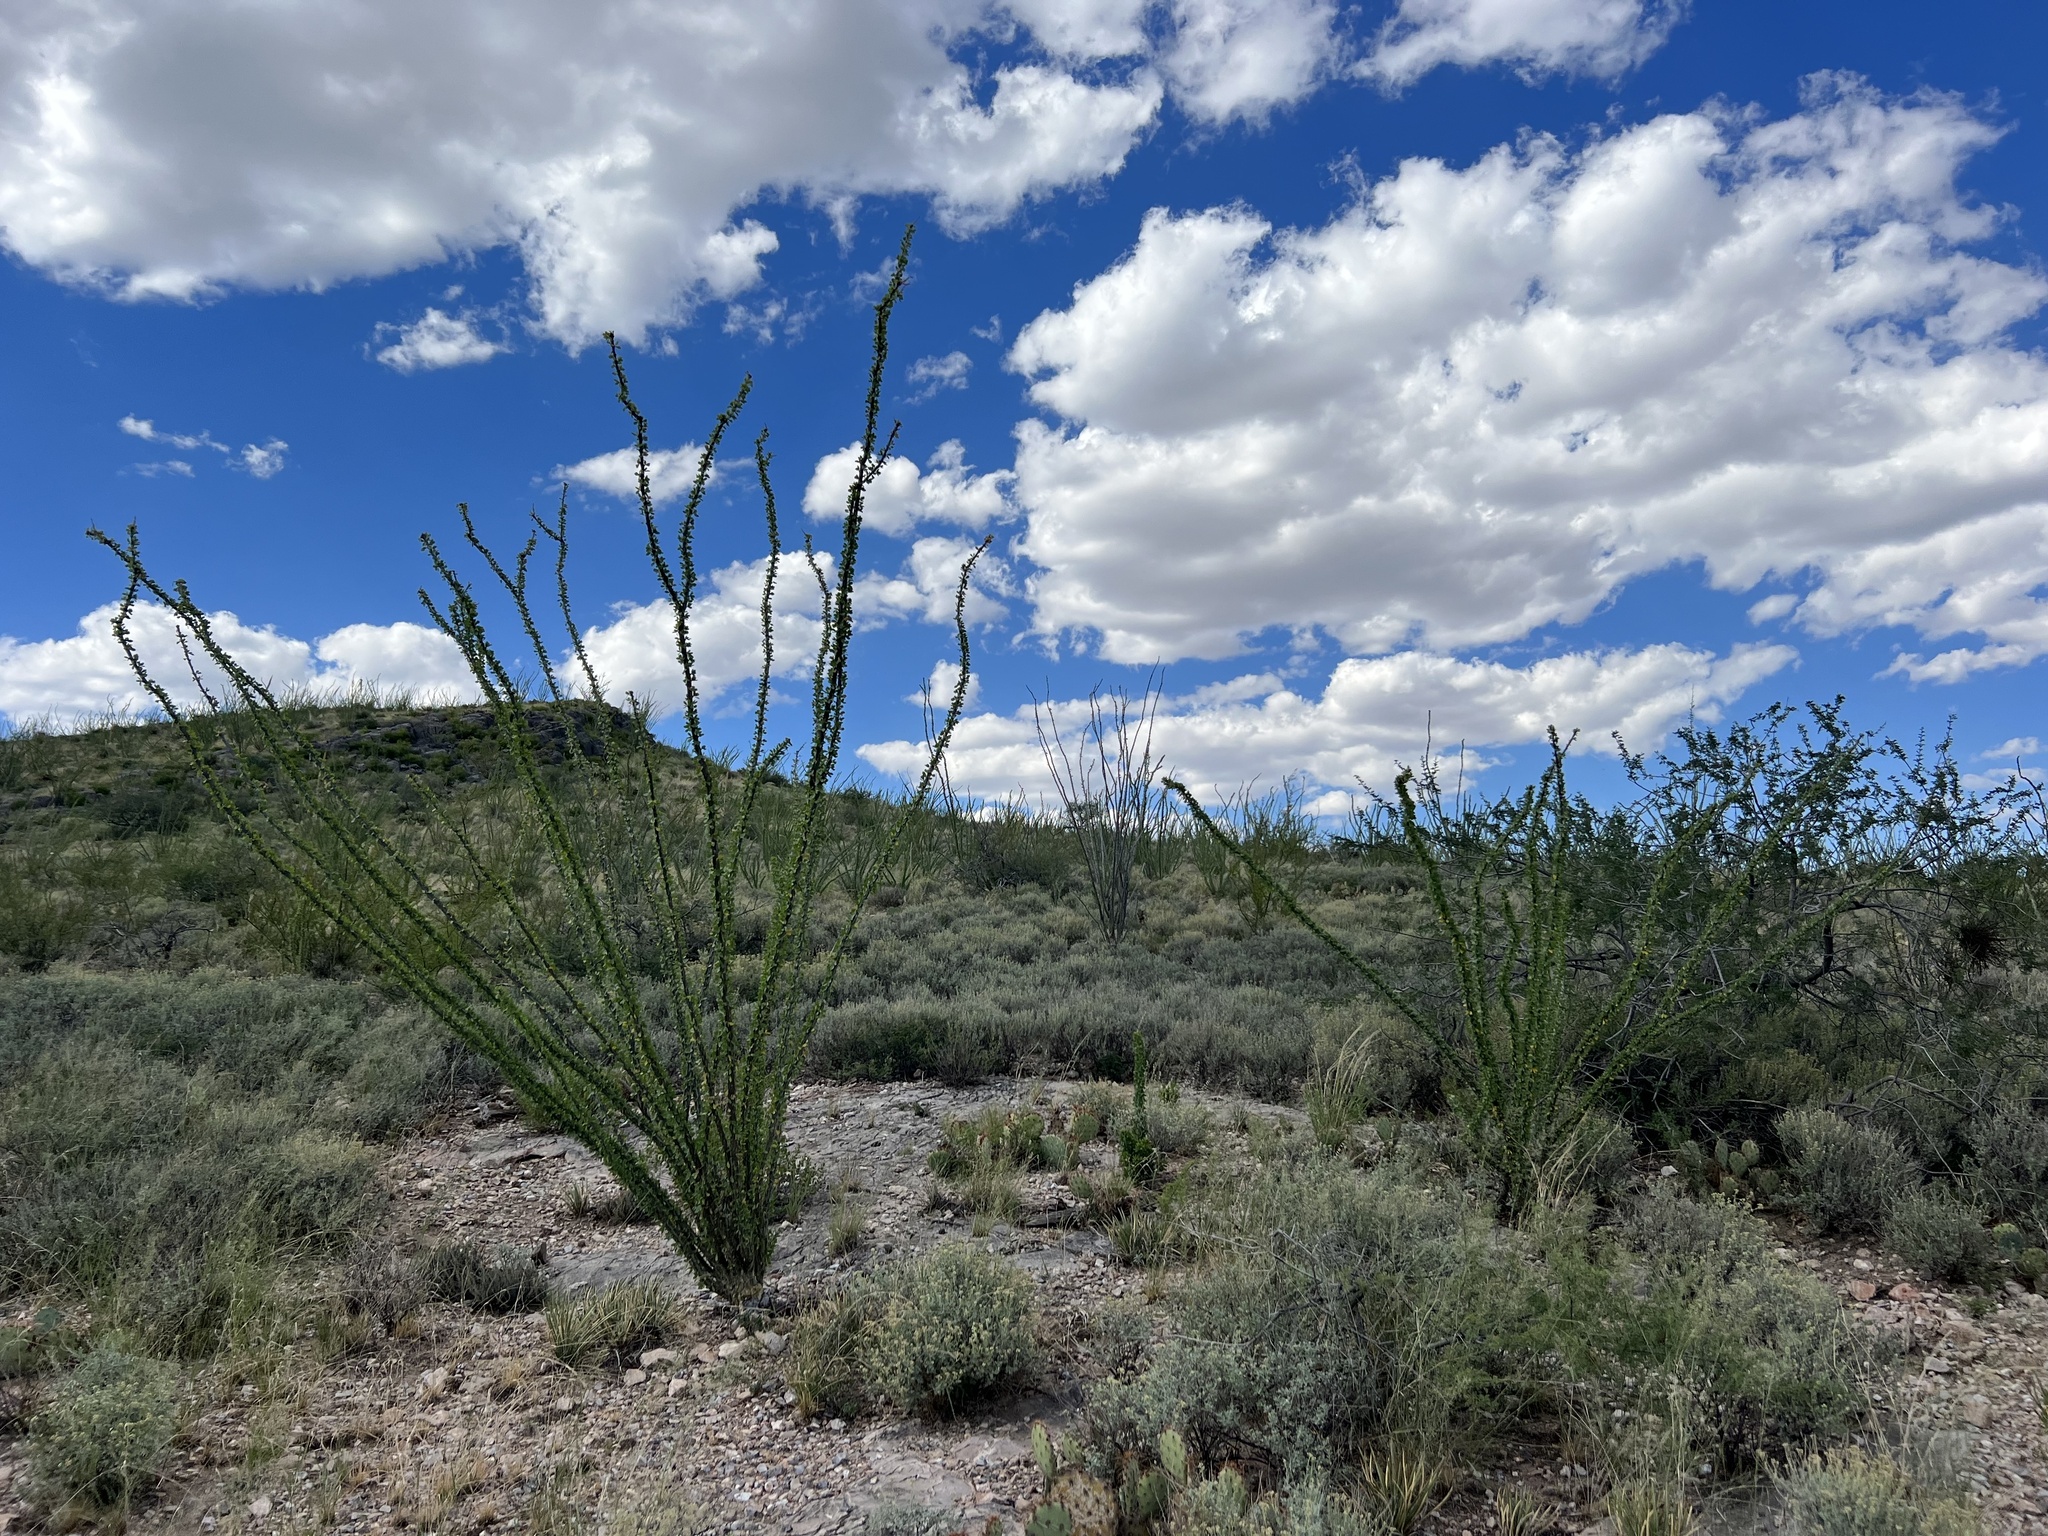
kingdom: Plantae
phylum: Tracheophyta
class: Magnoliopsida
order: Ericales
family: Fouquieriaceae
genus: Fouquieria
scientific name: Fouquieria splendens
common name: Vine-cactus
